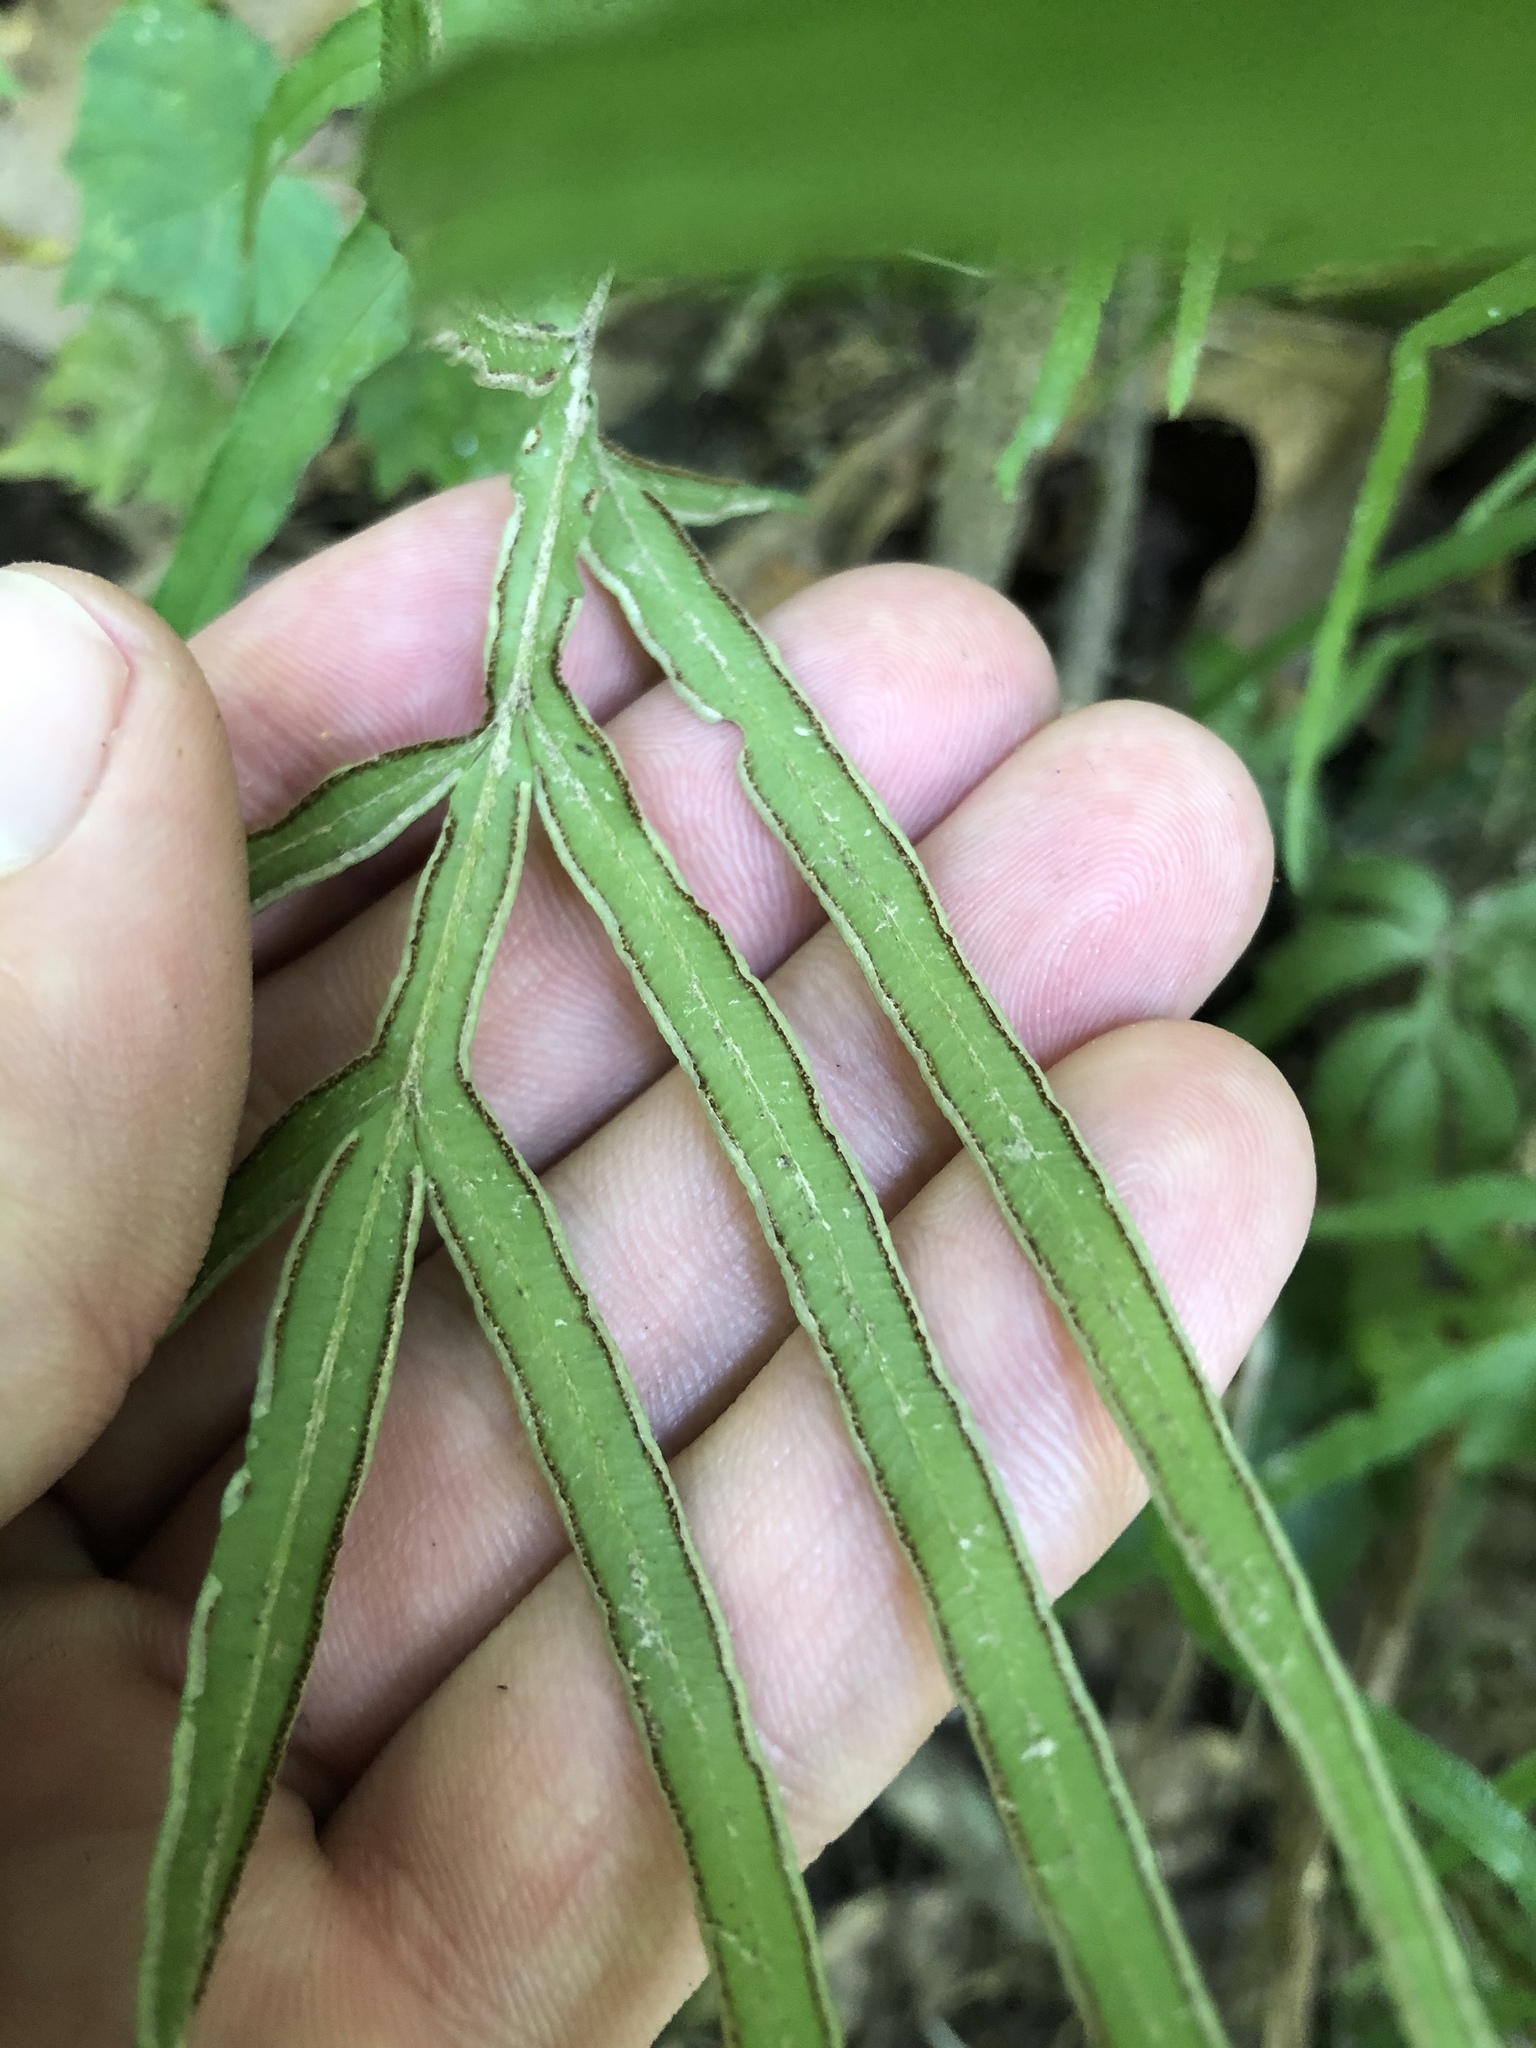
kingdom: Plantae
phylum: Tracheophyta
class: Polypodiopsida
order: Polypodiales
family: Pteridaceae
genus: Pteris
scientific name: Pteris multifida
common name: Spider brake
